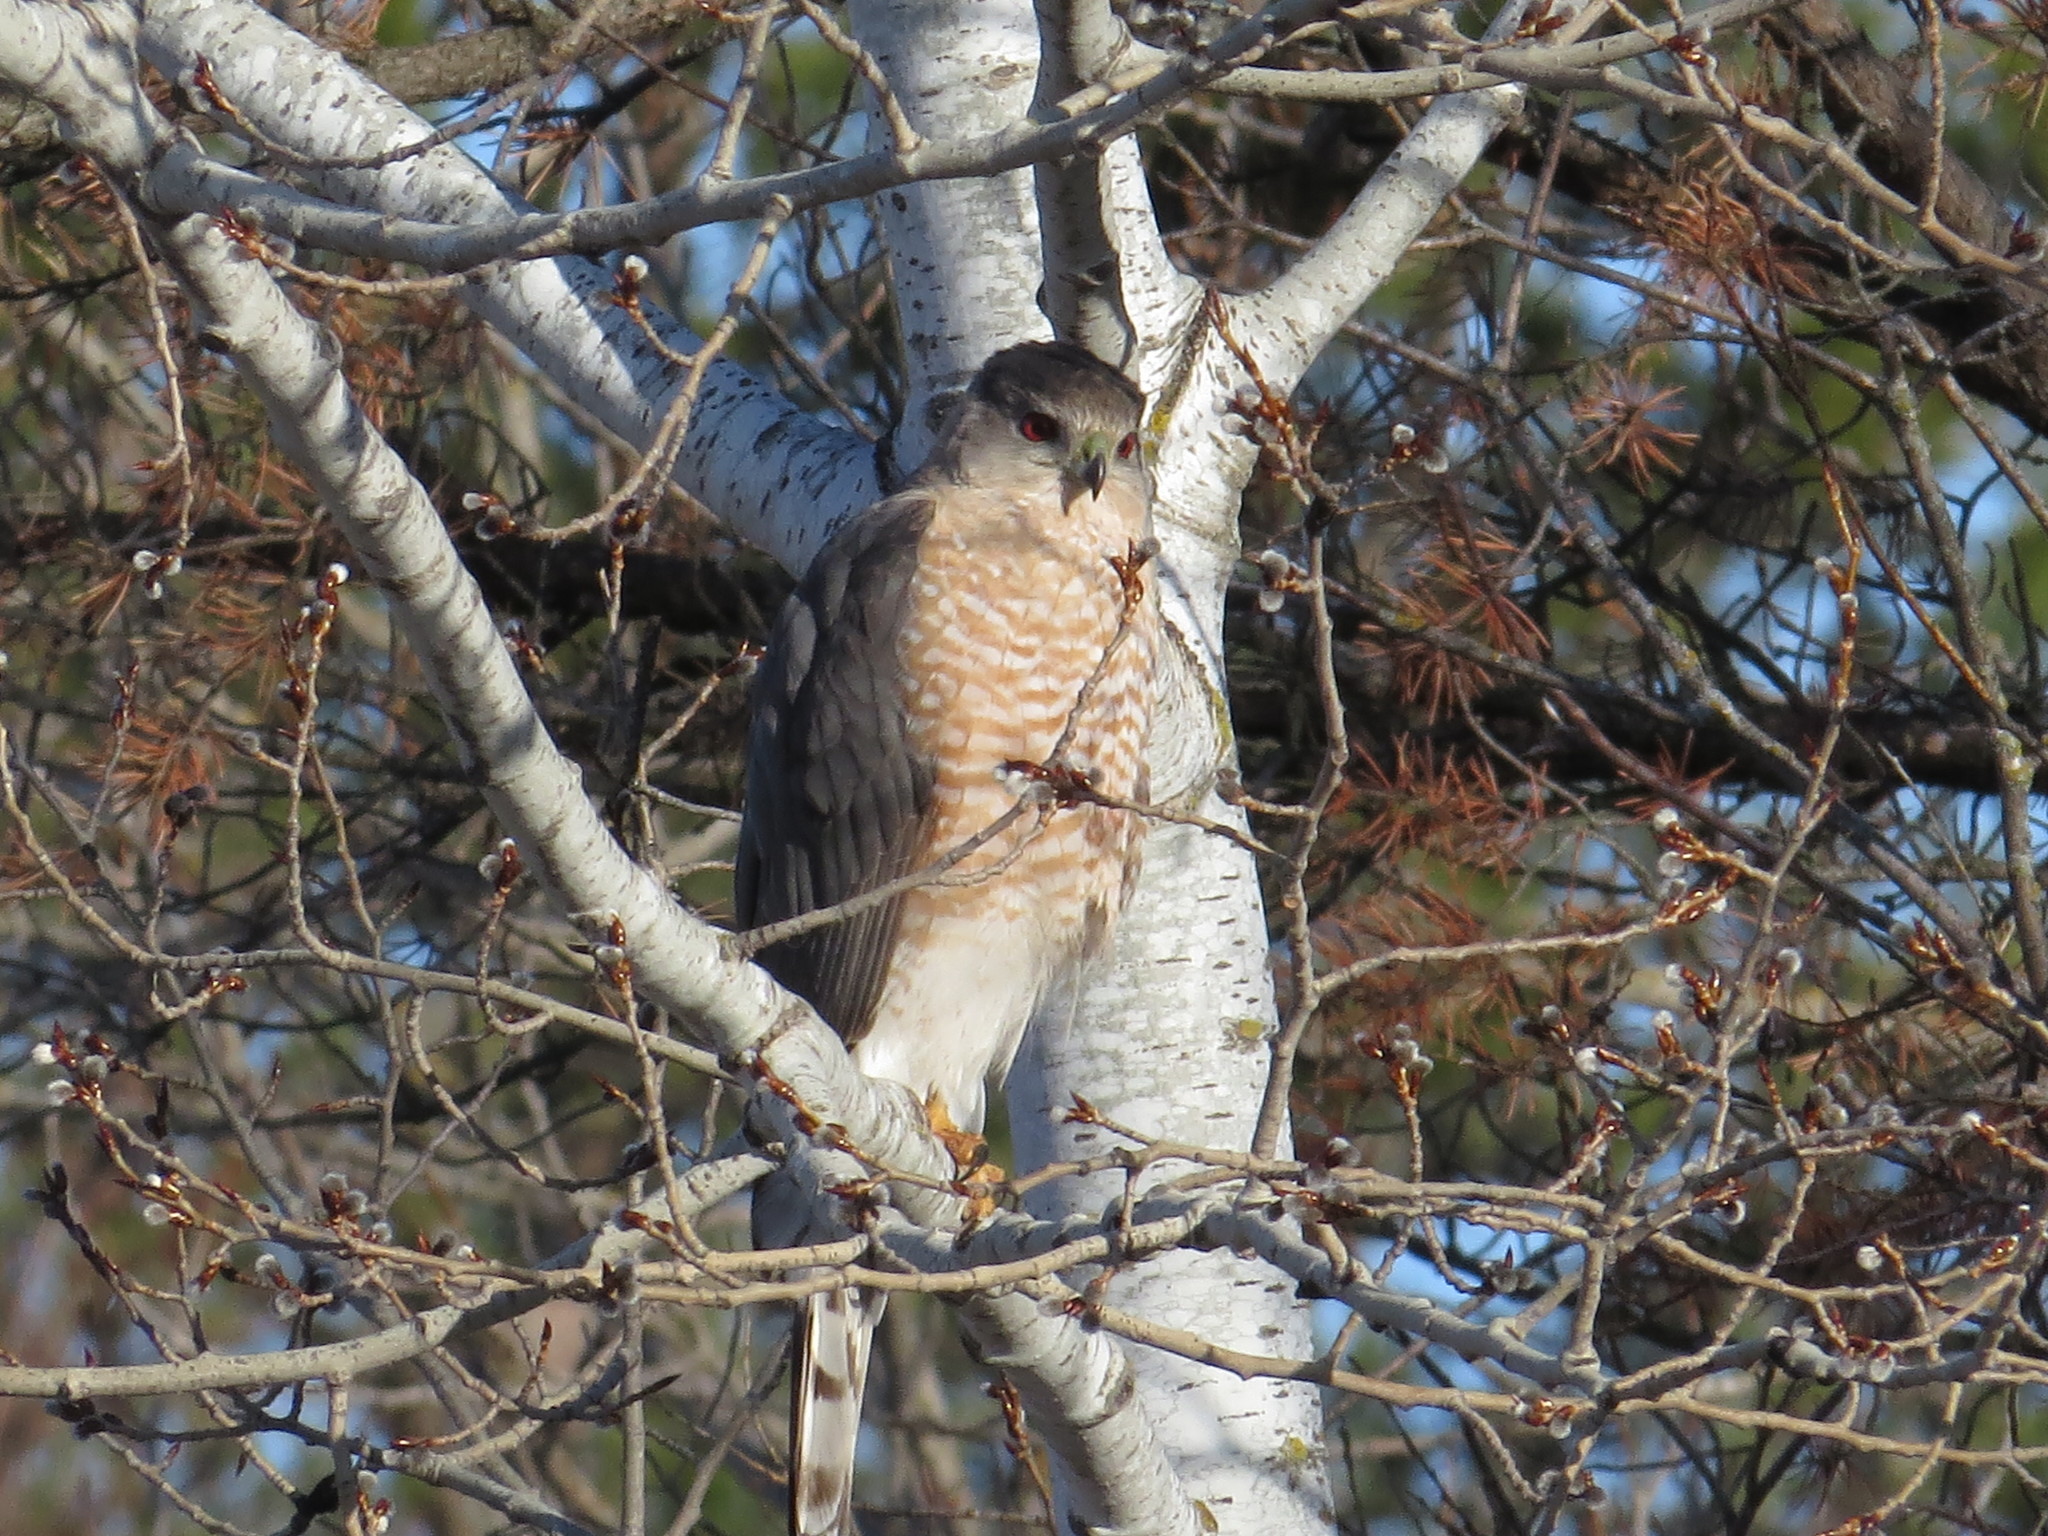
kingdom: Animalia
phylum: Chordata
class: Aves
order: Accipitriformes
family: Accipitridae
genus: Accipiter
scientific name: Accipiter cooperii
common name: Cooper's hawk
